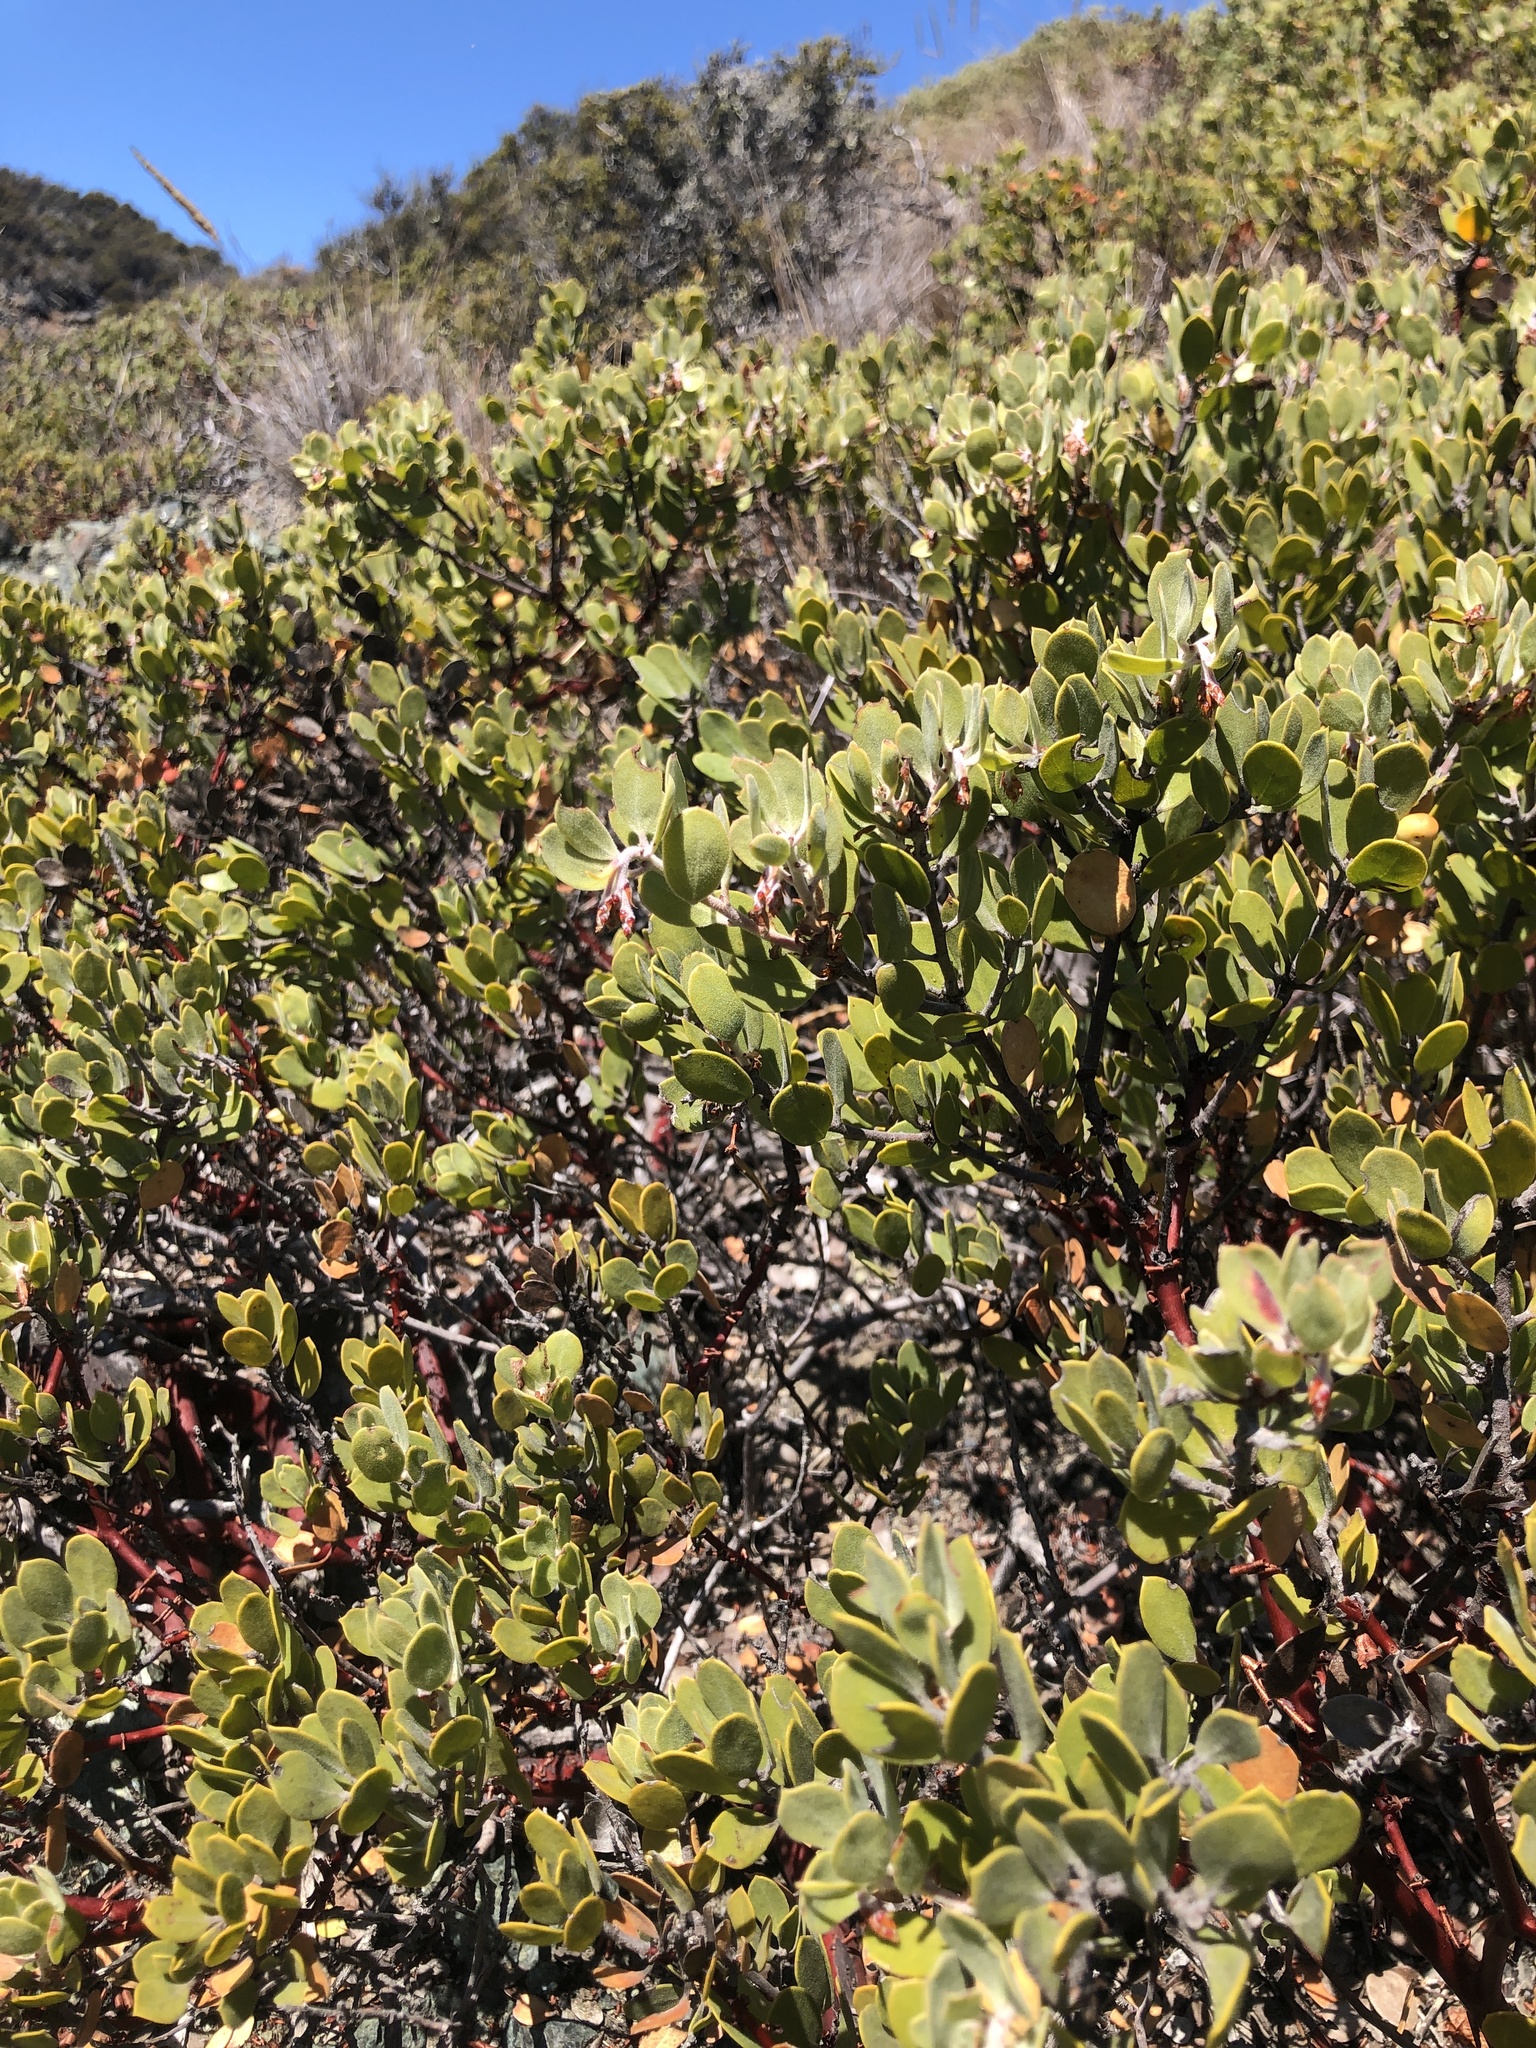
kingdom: Plantae
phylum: Tracheophyta
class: Magnoliopsida
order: Ericales
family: Ericaceae
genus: Arctostaphylos
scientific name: Arctostaphylos montana
